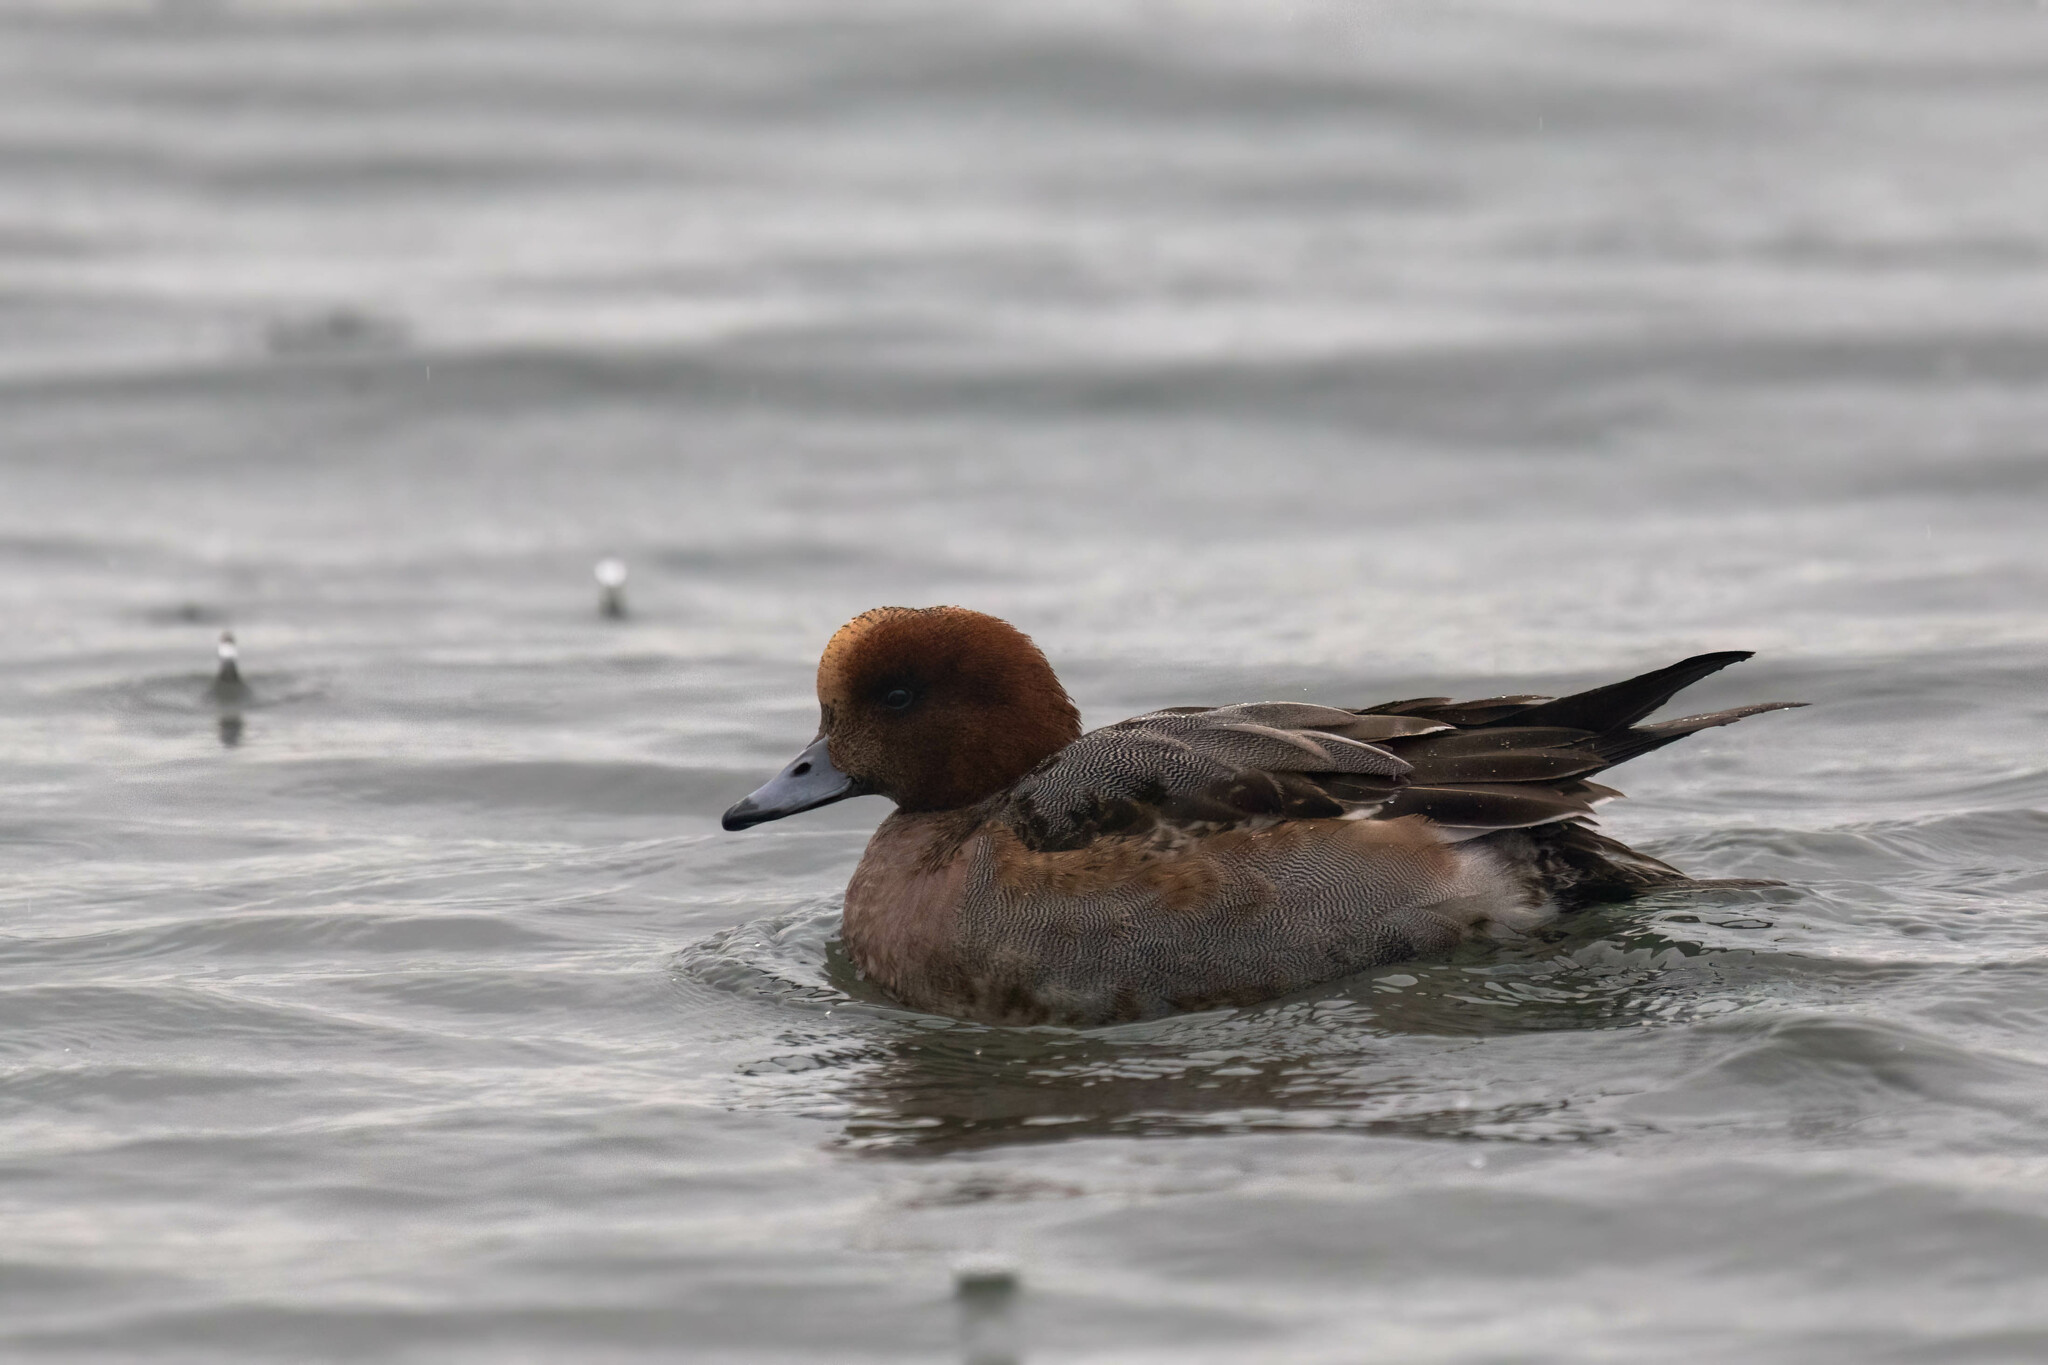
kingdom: Animalia
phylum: Chordata
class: Aves
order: Anseriformes
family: Anatidae
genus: Mareca
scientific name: Mareca penelope
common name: Eurasian wigeon
